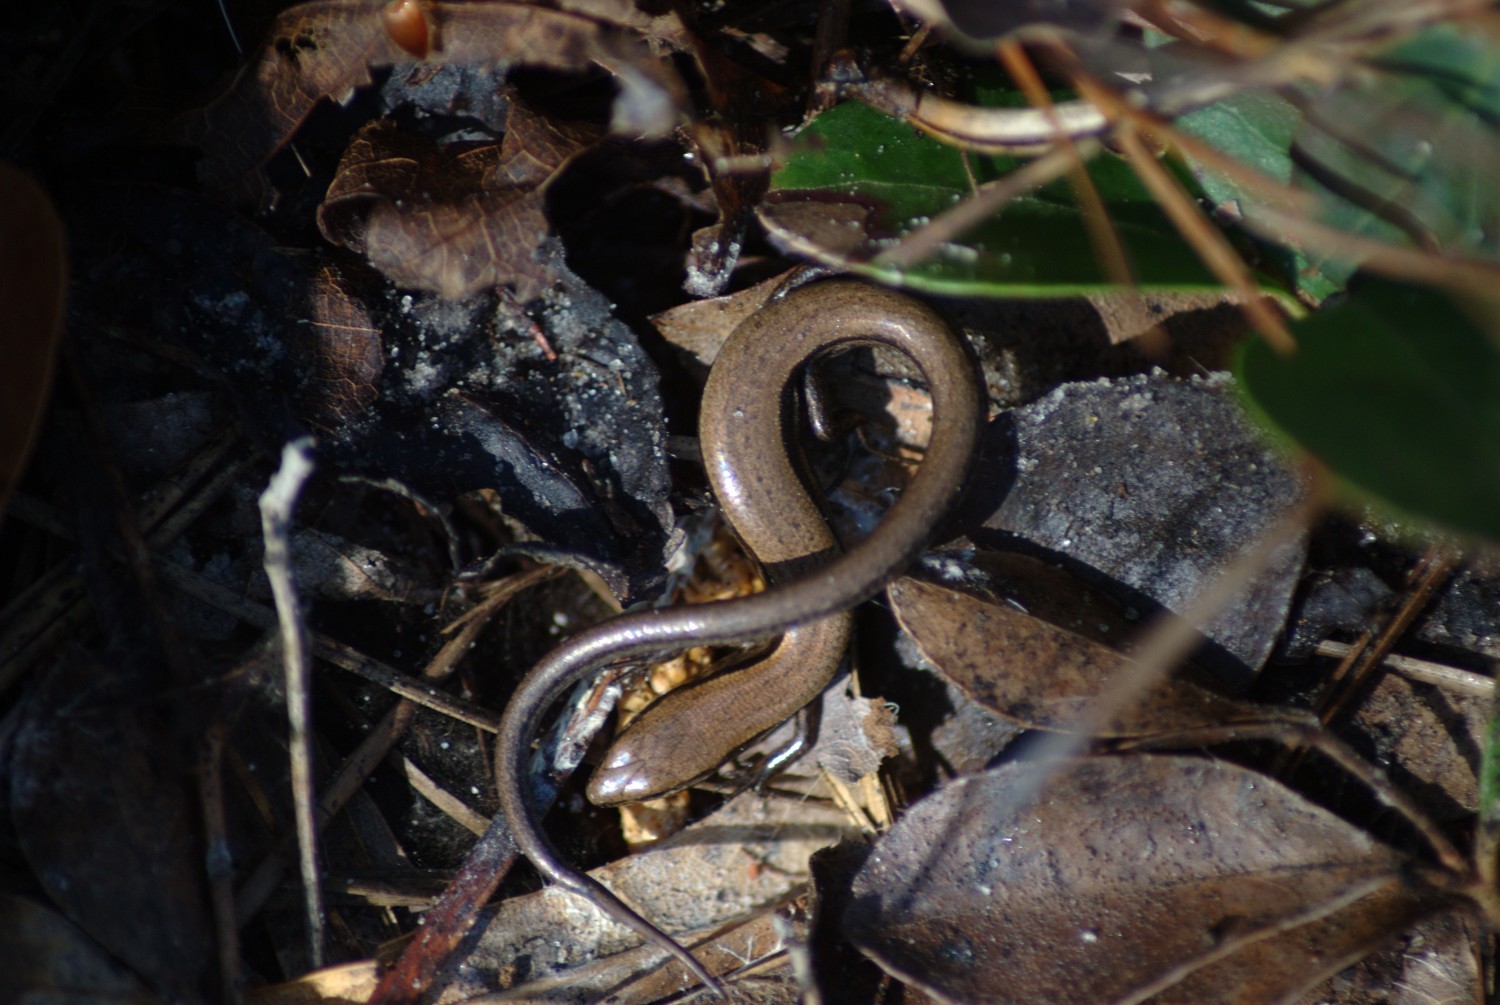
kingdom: Animalia
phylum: Chordata
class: Squamata
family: Scincidae
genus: Scincella
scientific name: Scincella lateralis
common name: Ground skink
